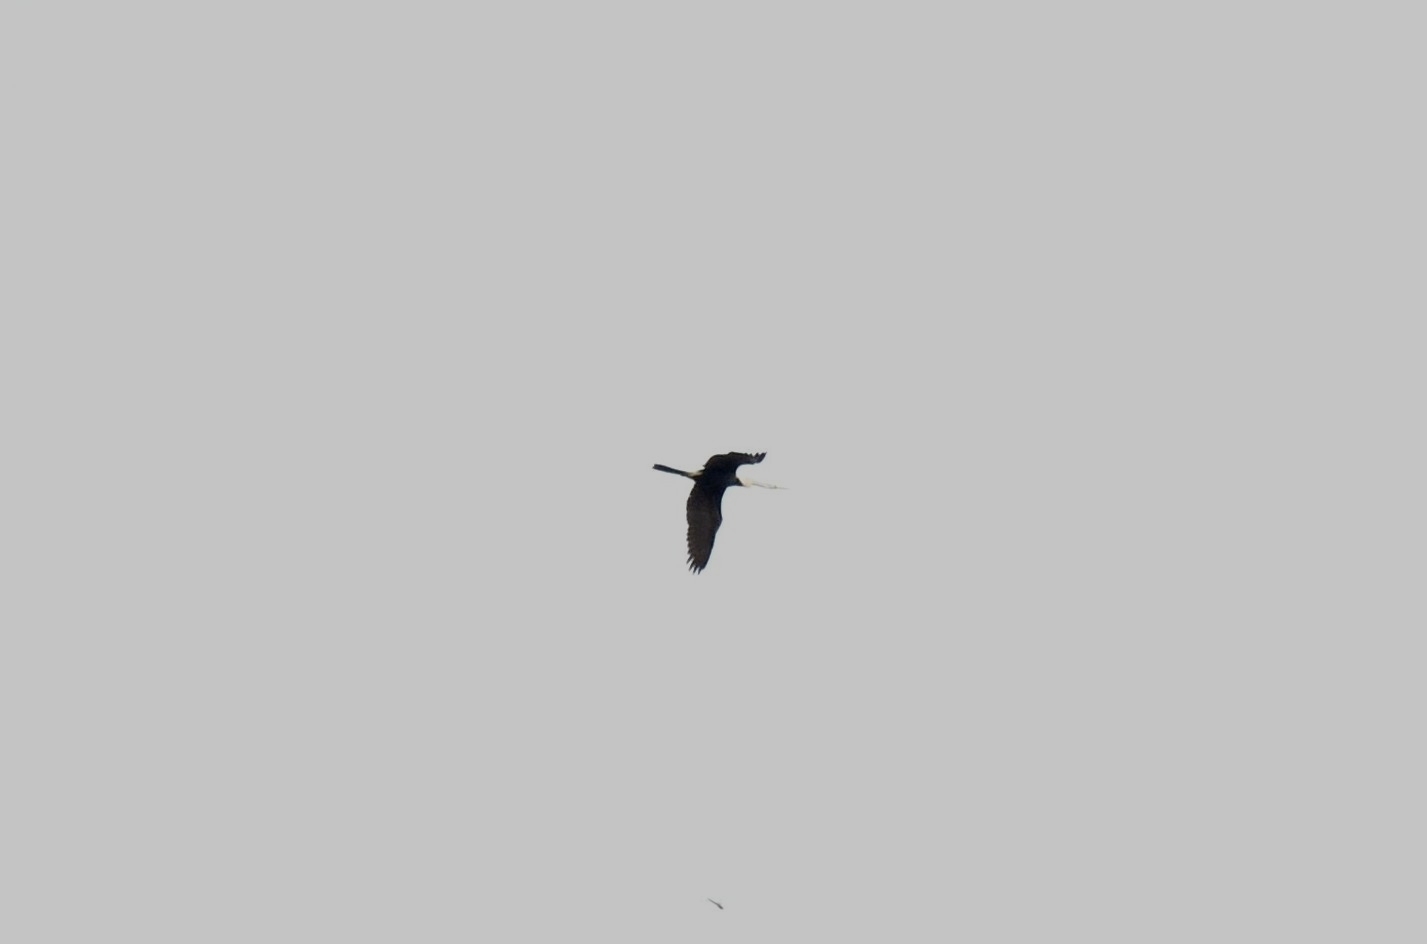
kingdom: Animalia
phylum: Chordata
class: Aves
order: Suliformes
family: Anhingidae
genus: Anhinga
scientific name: Anhinga melanogaster
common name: Oriental darter
